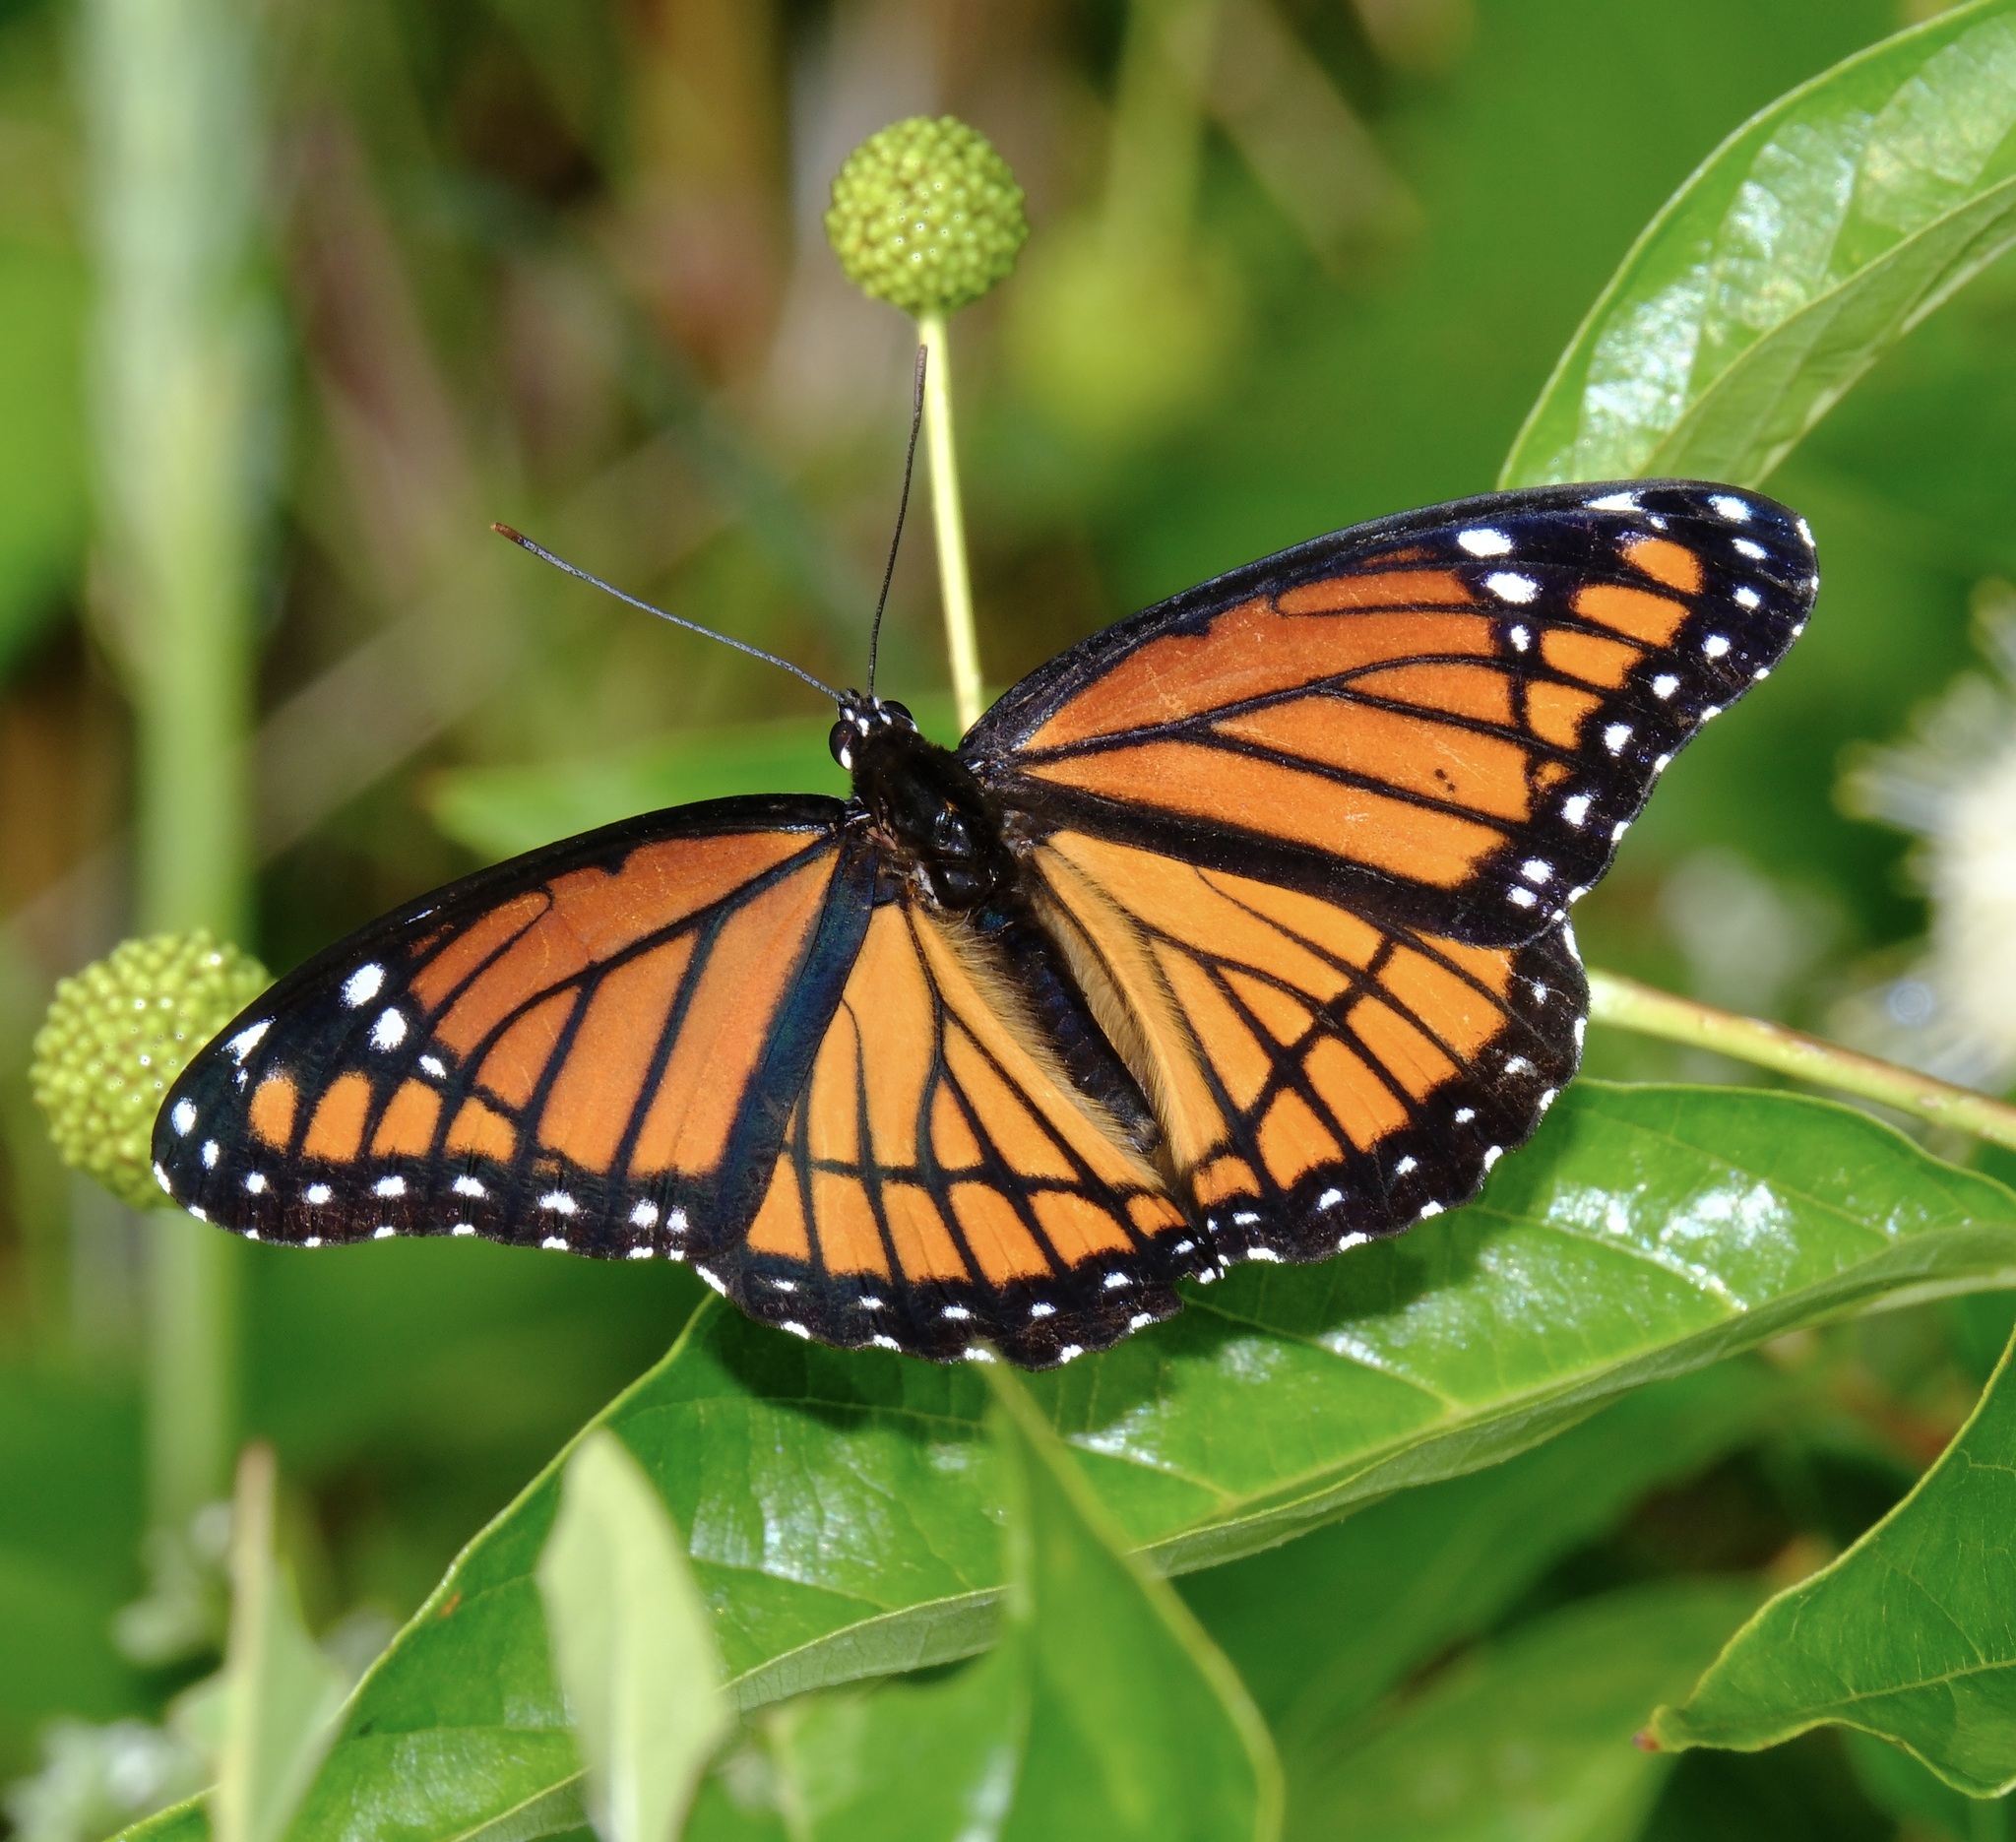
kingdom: Animalia
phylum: Arthropoda
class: Insecta
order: Lepidoptera
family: Nymphalidae
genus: Limenitis
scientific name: Limenitis archippus
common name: Viceroy
